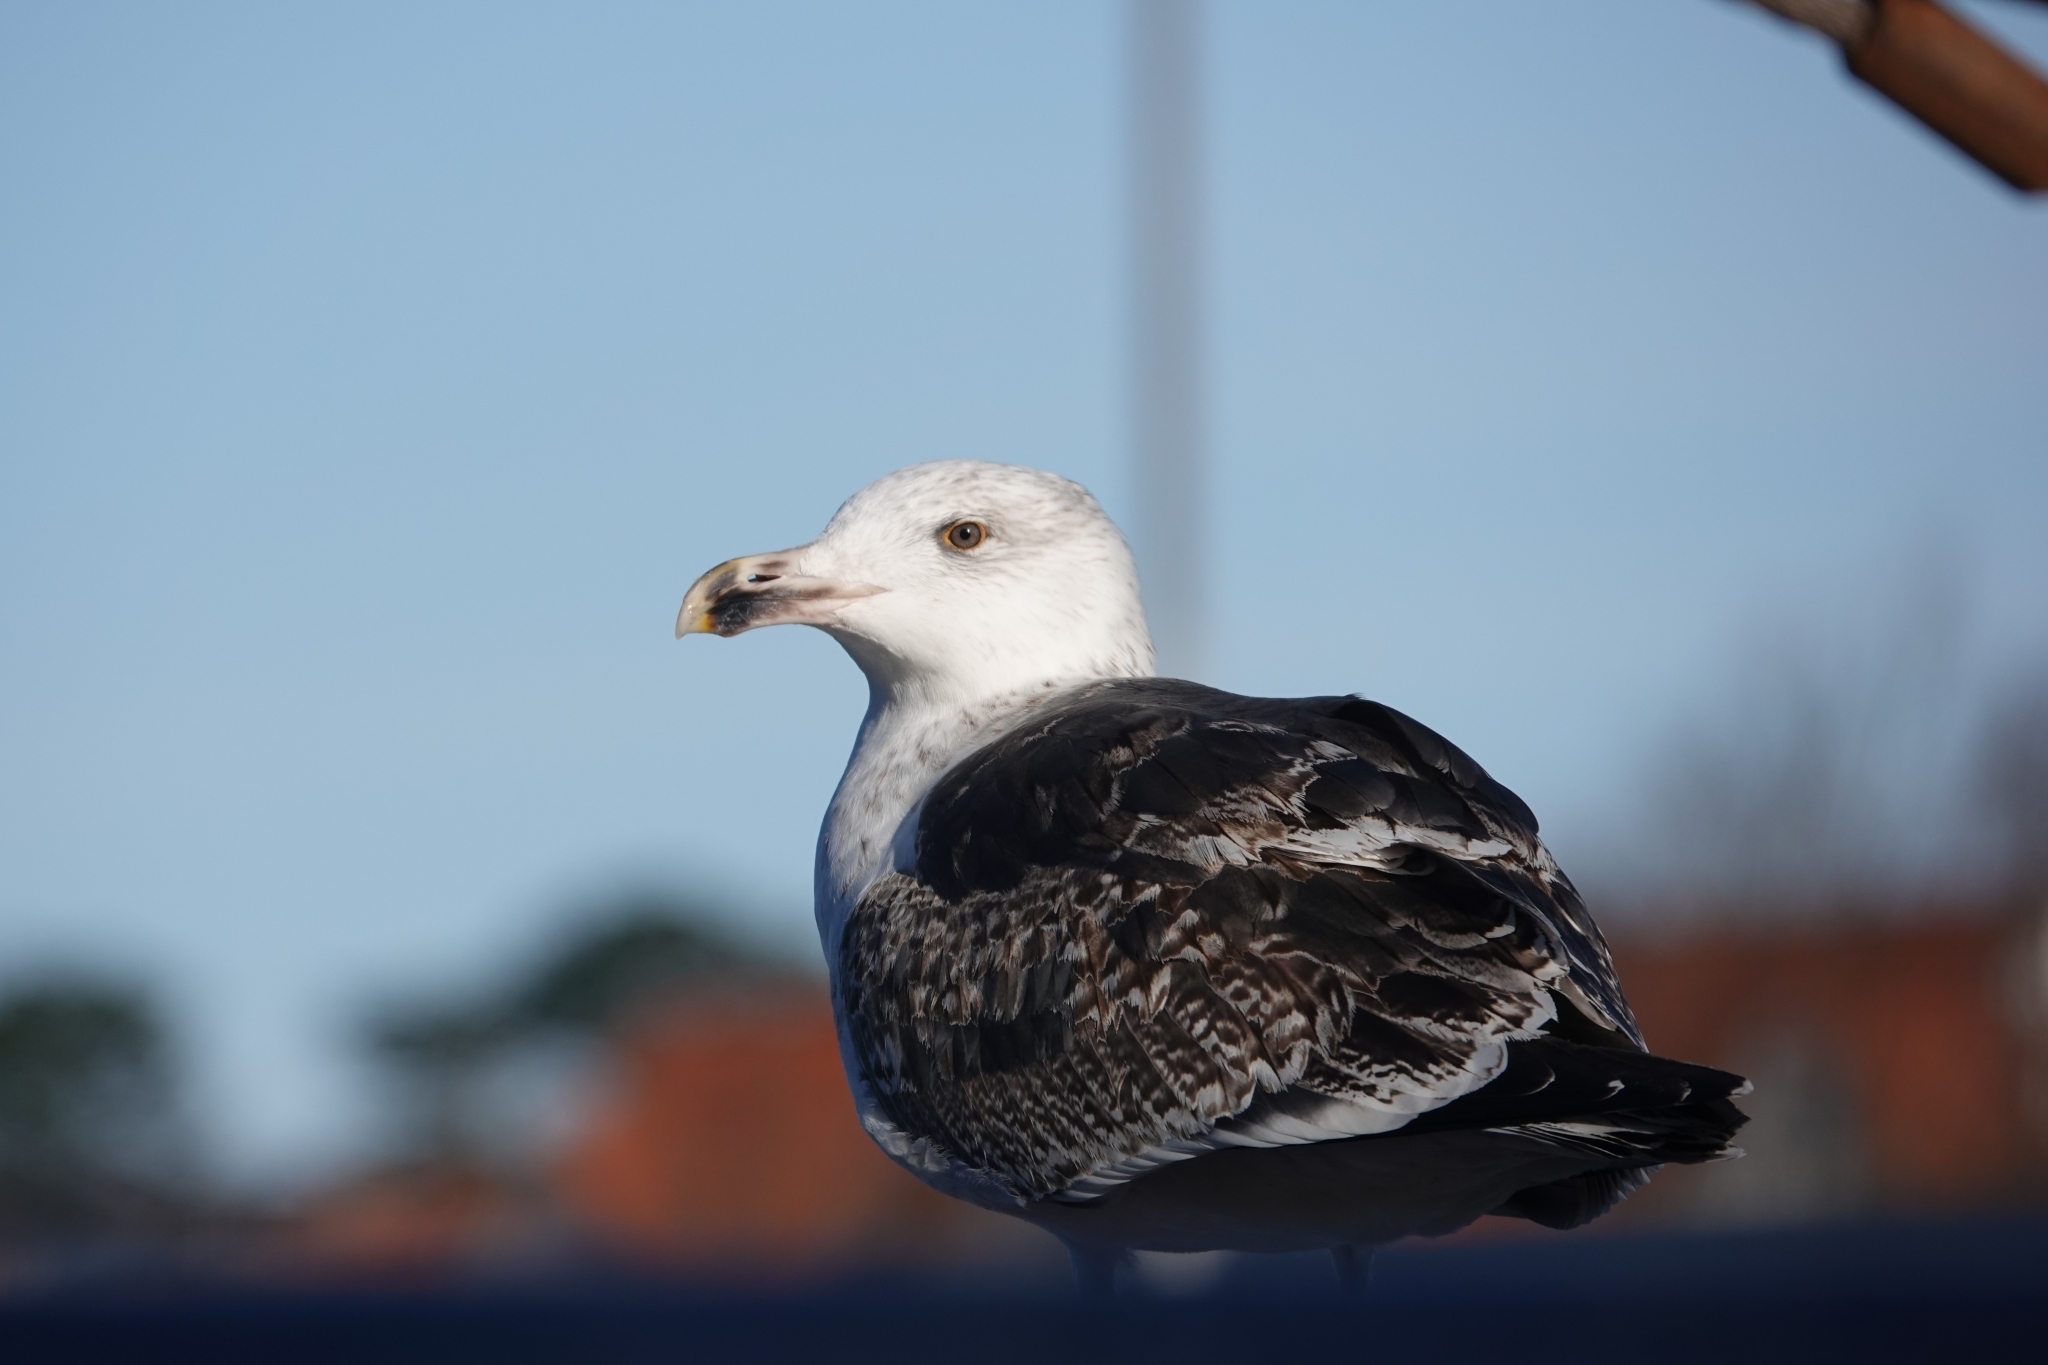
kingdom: Animalia
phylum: Chordata
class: Aves
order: Charadriiformes
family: Laridae
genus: Larus
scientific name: Larus marinus
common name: Great black-backed gull
